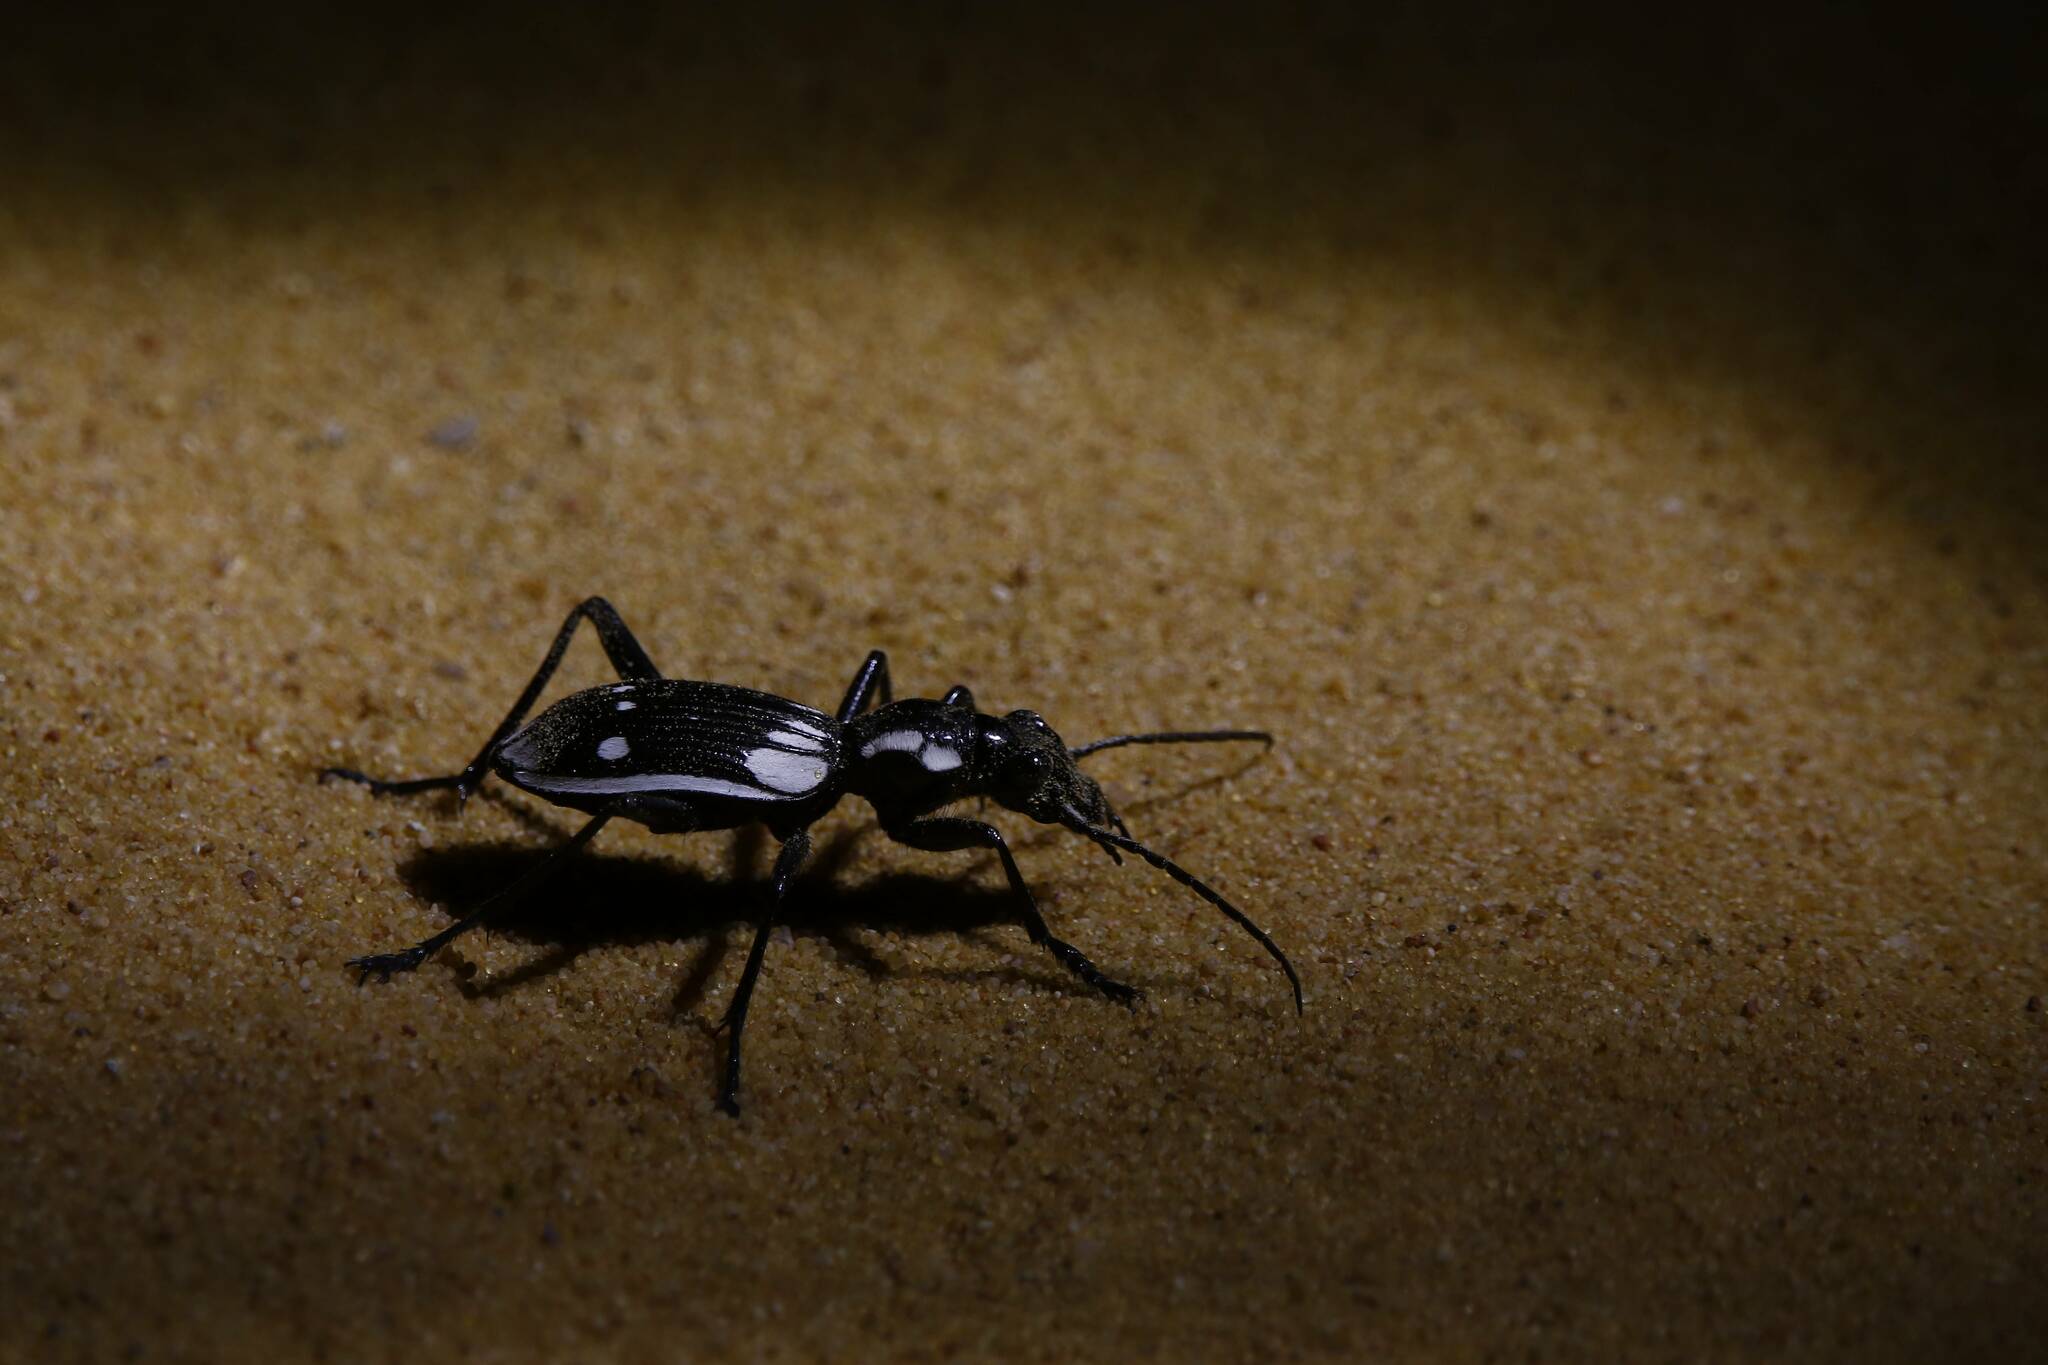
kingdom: Animalia
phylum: Arthropoda
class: Insecta
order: Coleoptera
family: Carabidae
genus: Anthia
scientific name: Anthia sexmaculata
